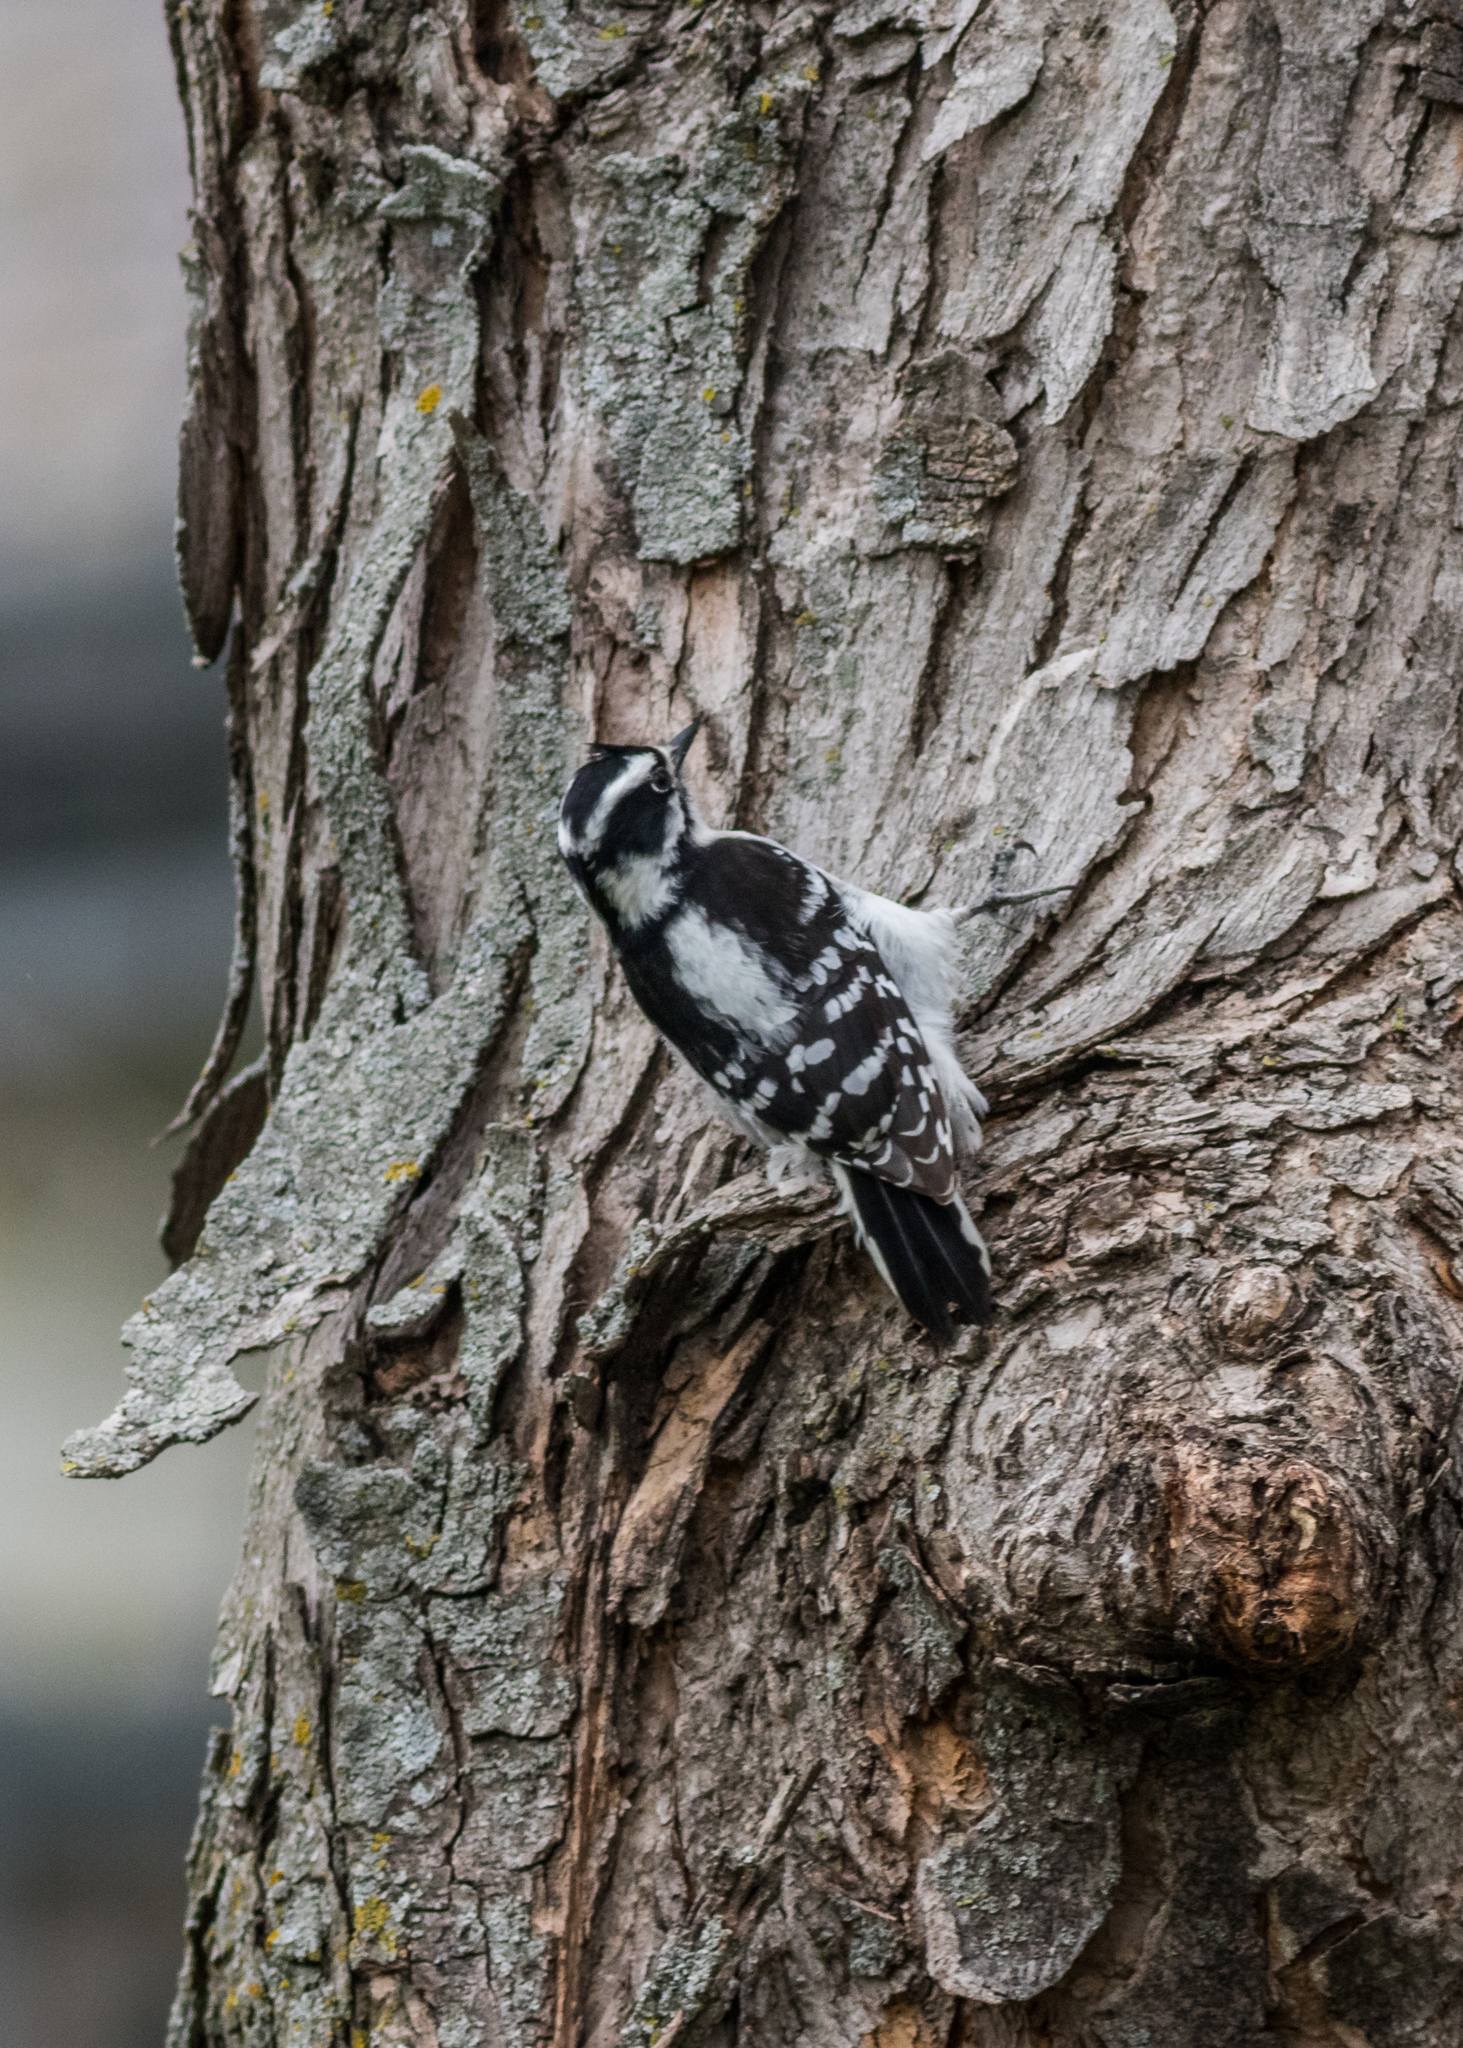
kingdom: Animalia
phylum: Chordata
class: Aves
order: Piciformes
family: Picidae
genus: Dryobates
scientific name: Dryobates pubescens
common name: Downy woodpecker
